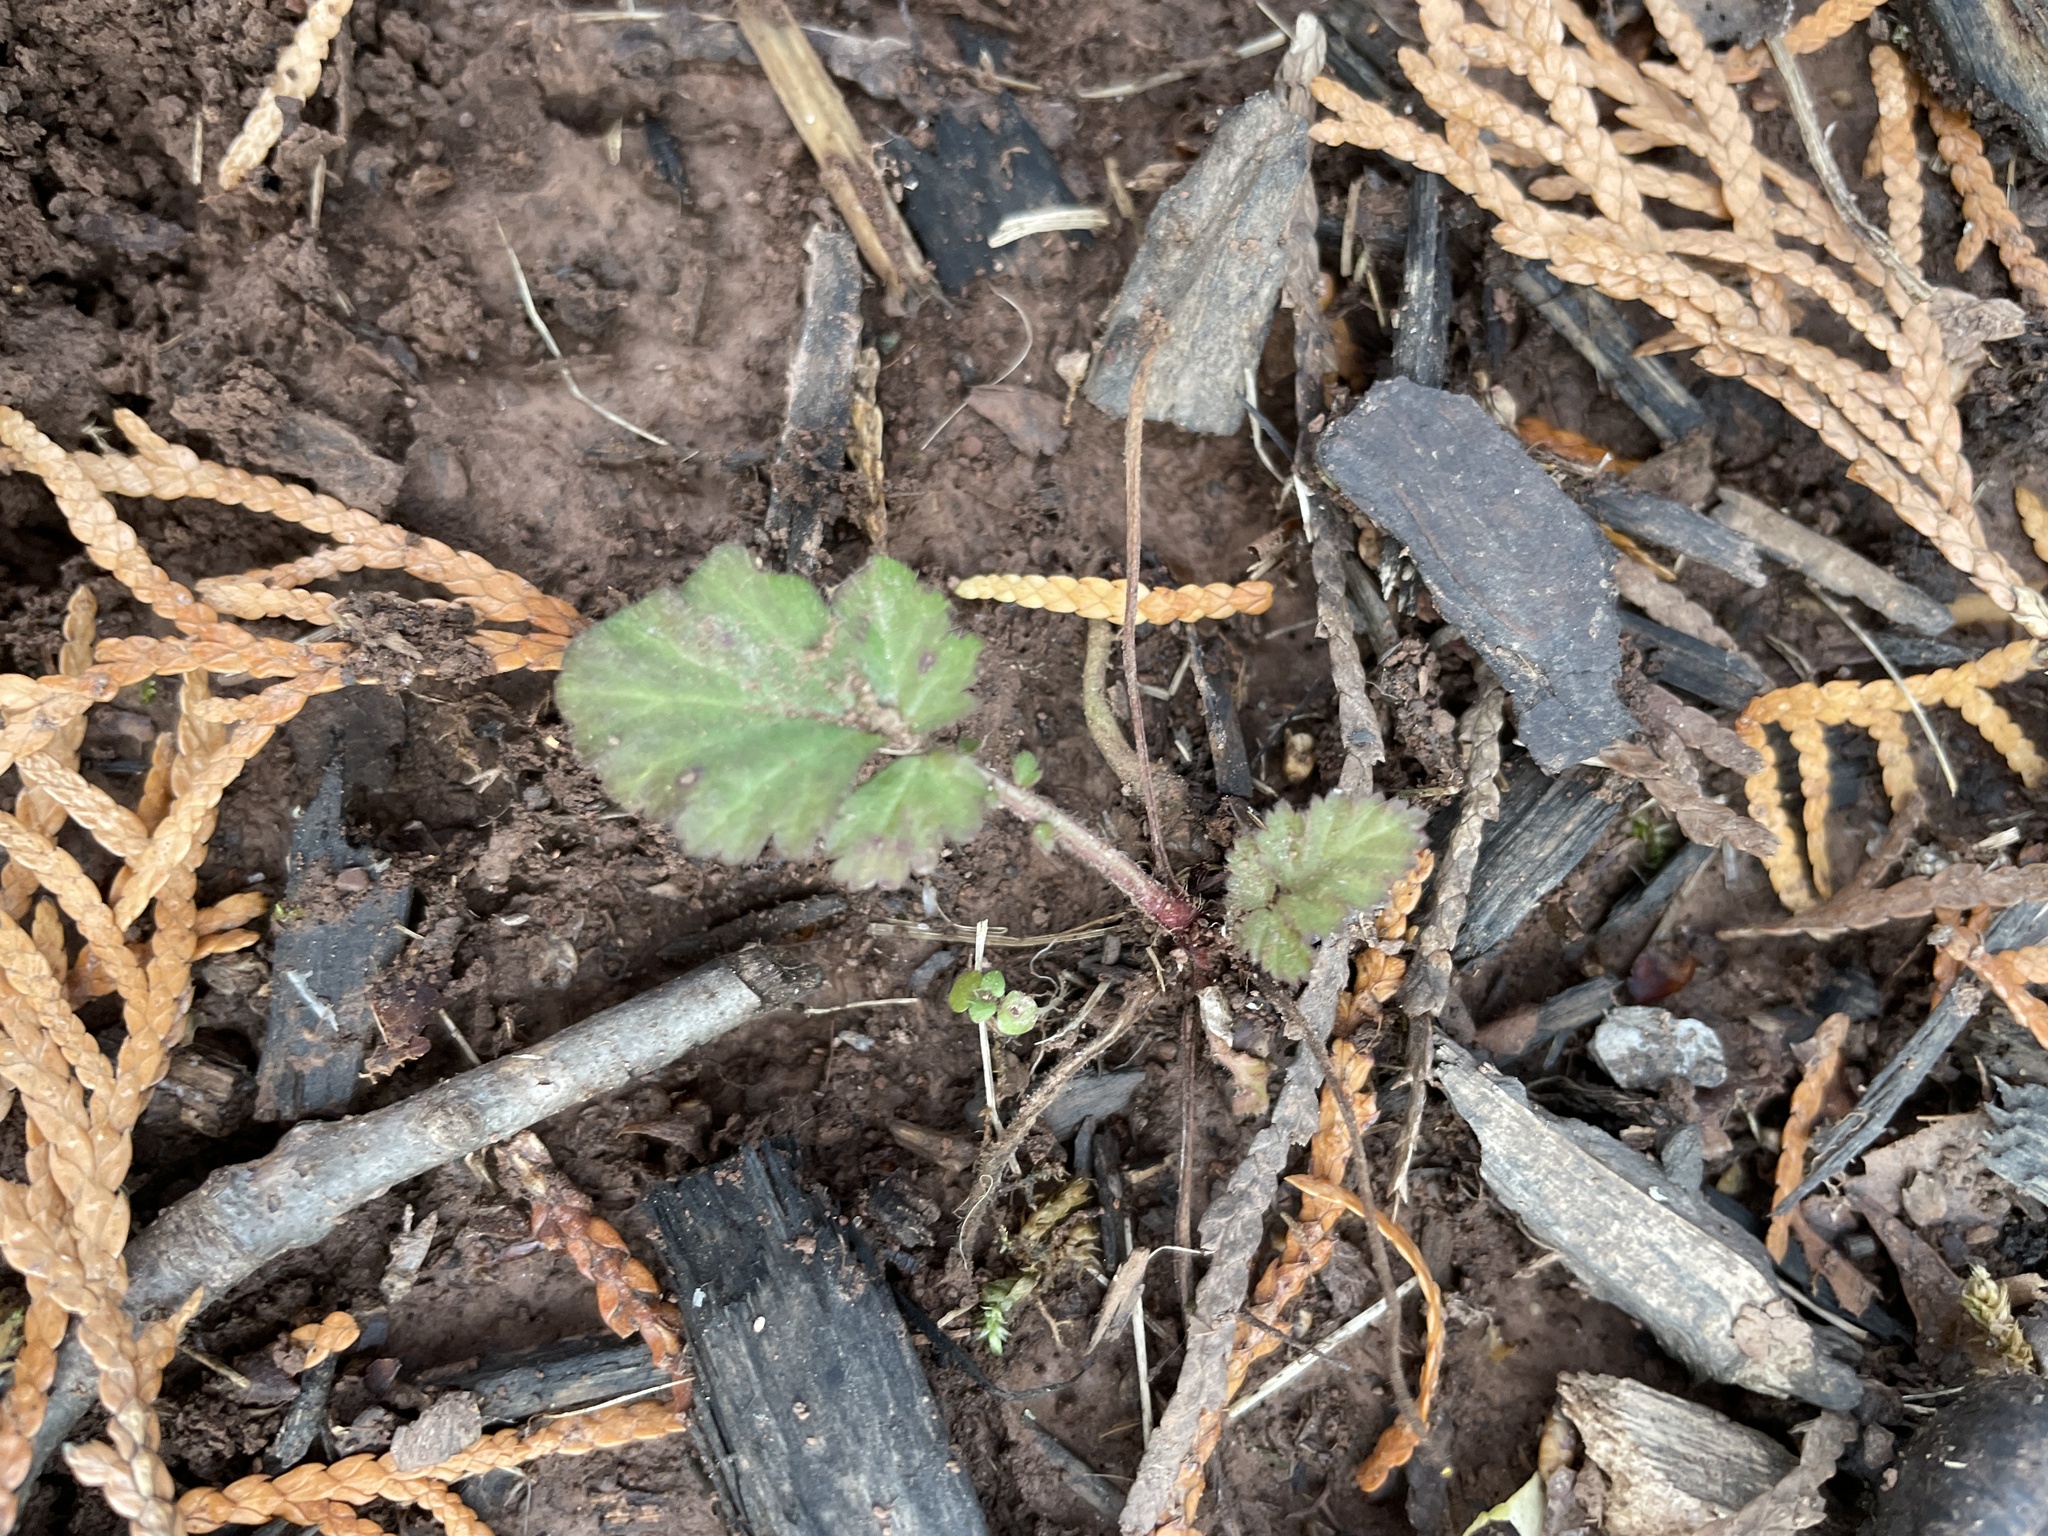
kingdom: Plantae
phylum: Tracheophyta
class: Magnoliopsida
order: Rosales
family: Rosaceae
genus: Geum
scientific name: Geum canadense
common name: White avens
